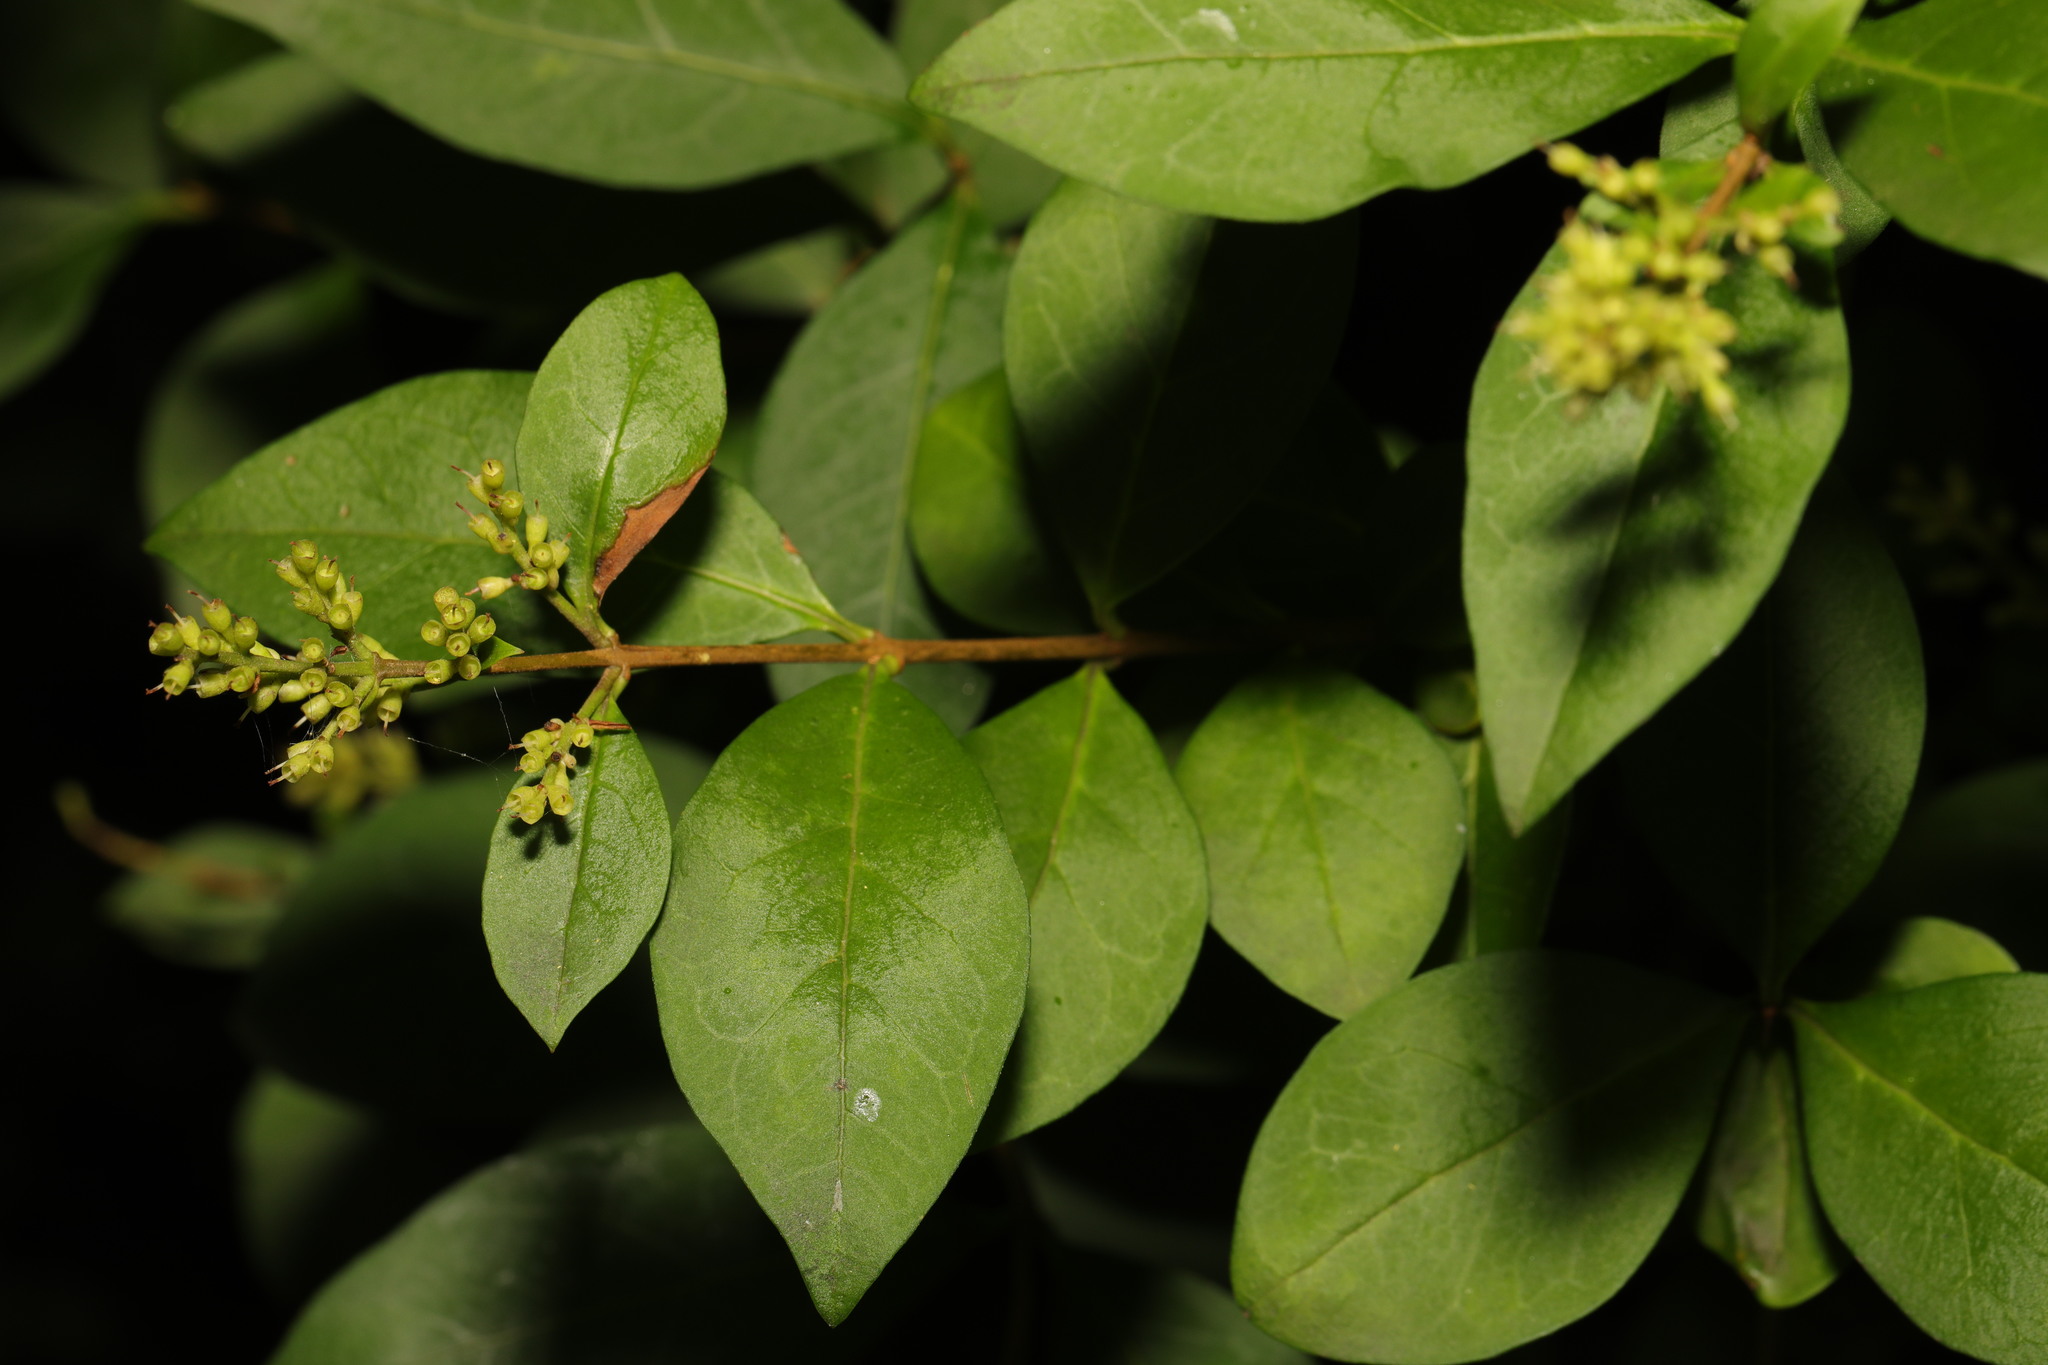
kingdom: Plantae
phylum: Tracheophyta
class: Magnoliopsida
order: Lamiales
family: Oleaceae
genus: Ligustrum
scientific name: Ligustrum ovalifolium
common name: California privet
